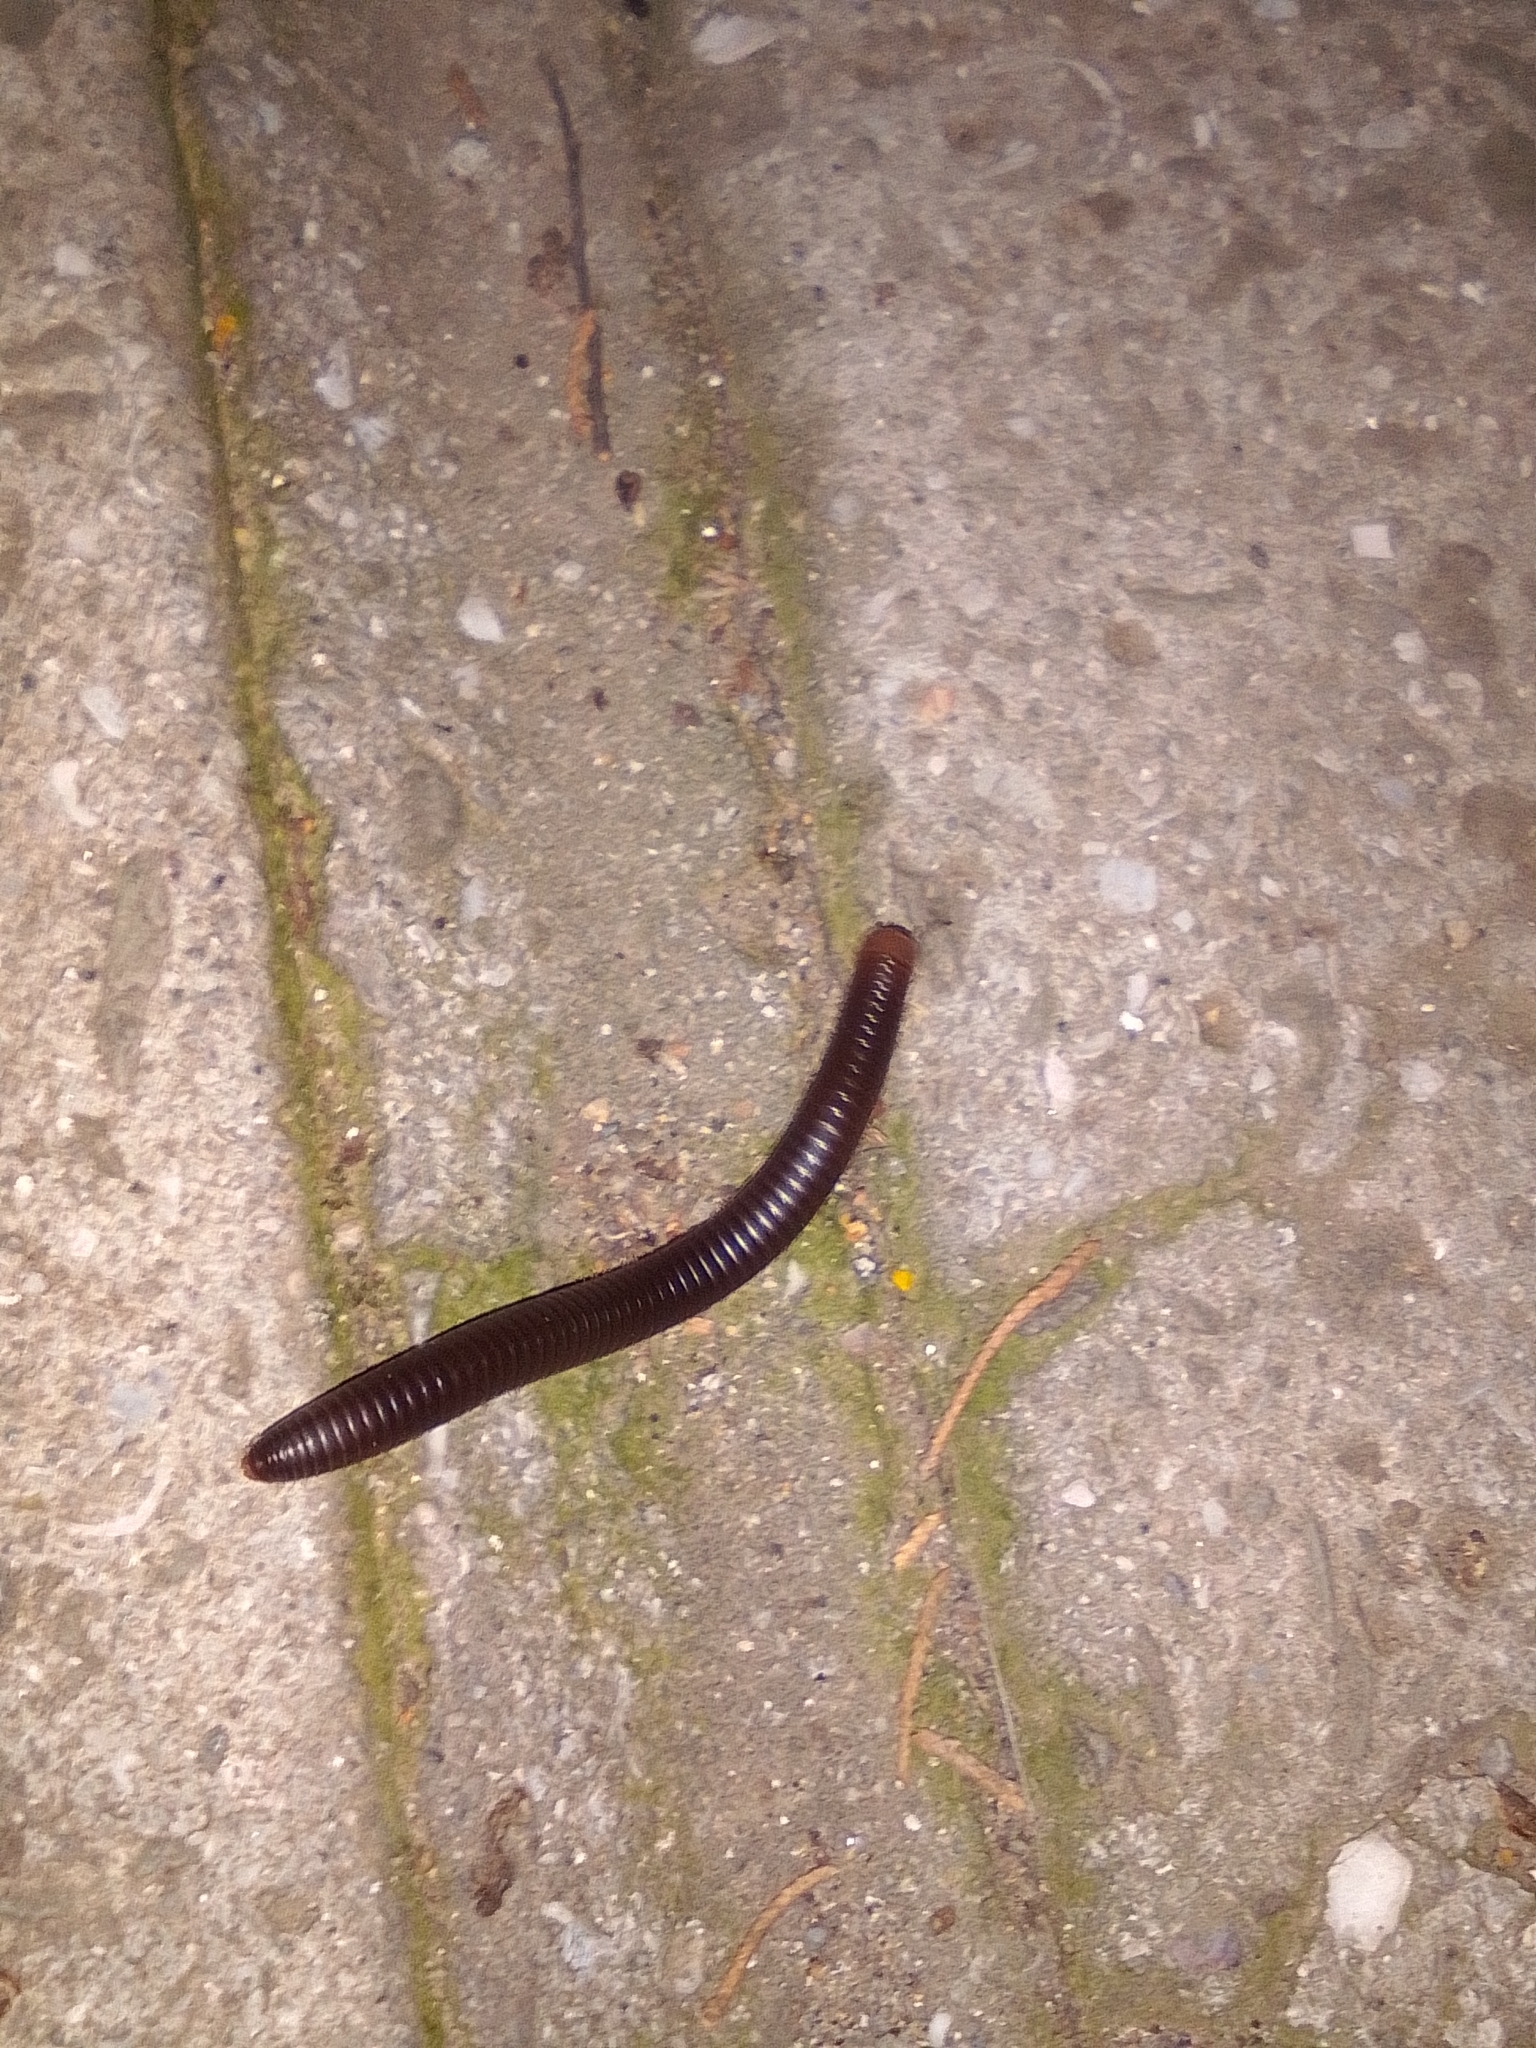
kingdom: Animalia
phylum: Arthropoda
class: Diplopoda
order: Julida
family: Julidae
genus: Pachyiulus
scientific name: Pachyiulus flavipes
